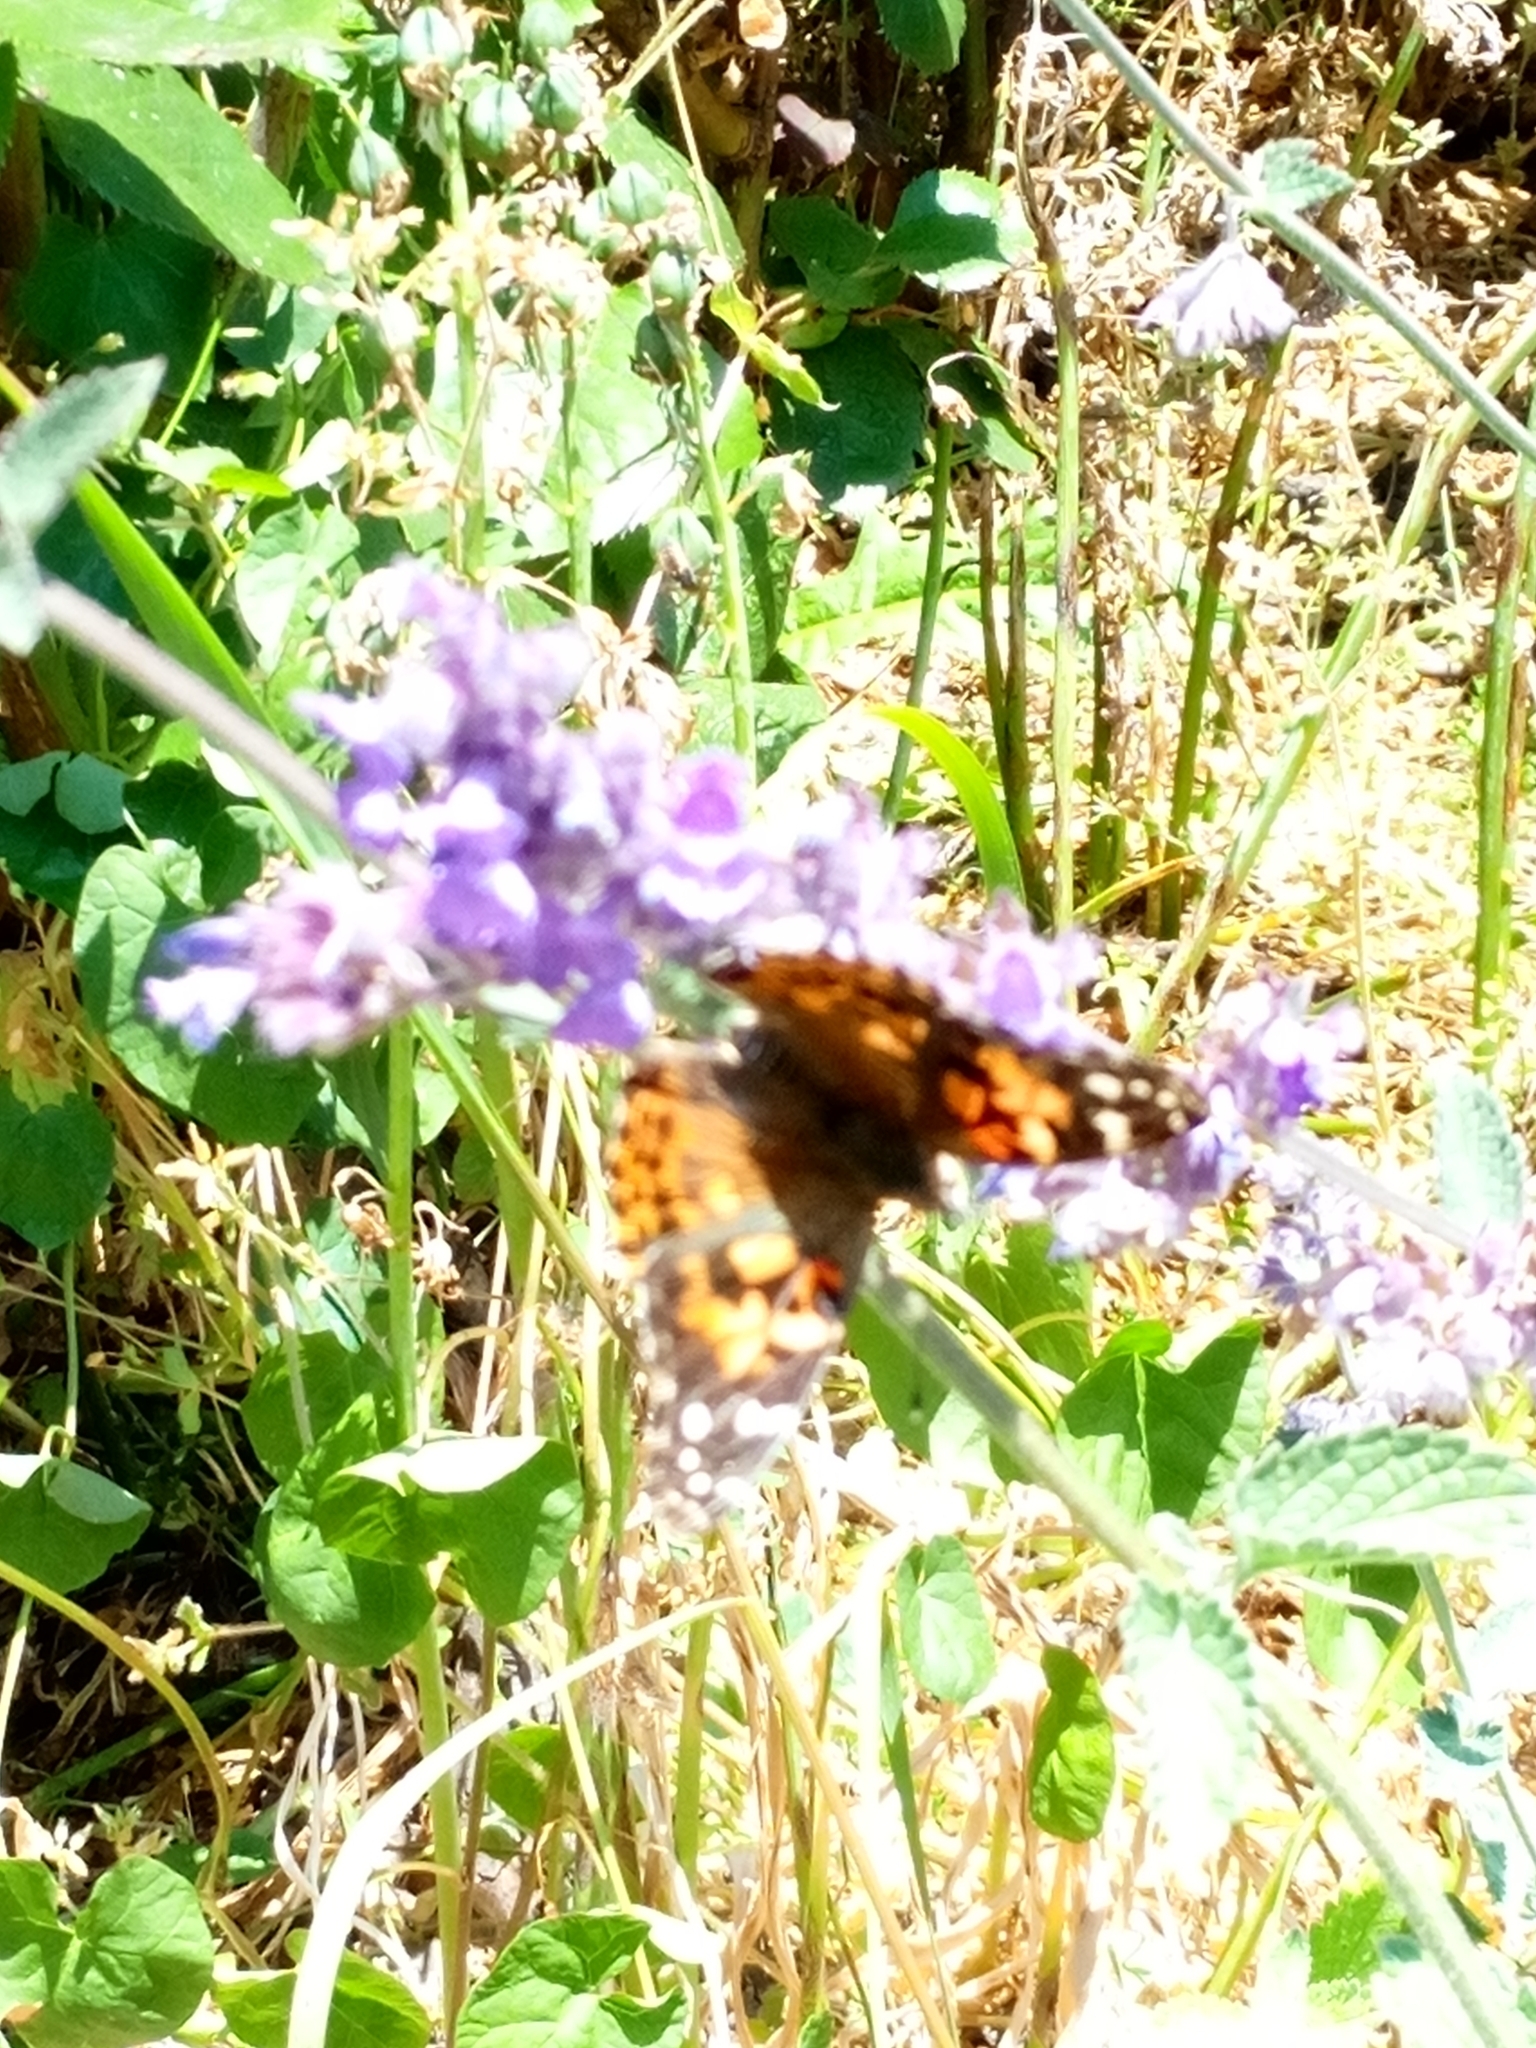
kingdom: Animalia
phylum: Arthropoda
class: Insecta
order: Lepidoptera
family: Nymphalidae
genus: Vanessa
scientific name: Vanessa cardui
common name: Painted lady
